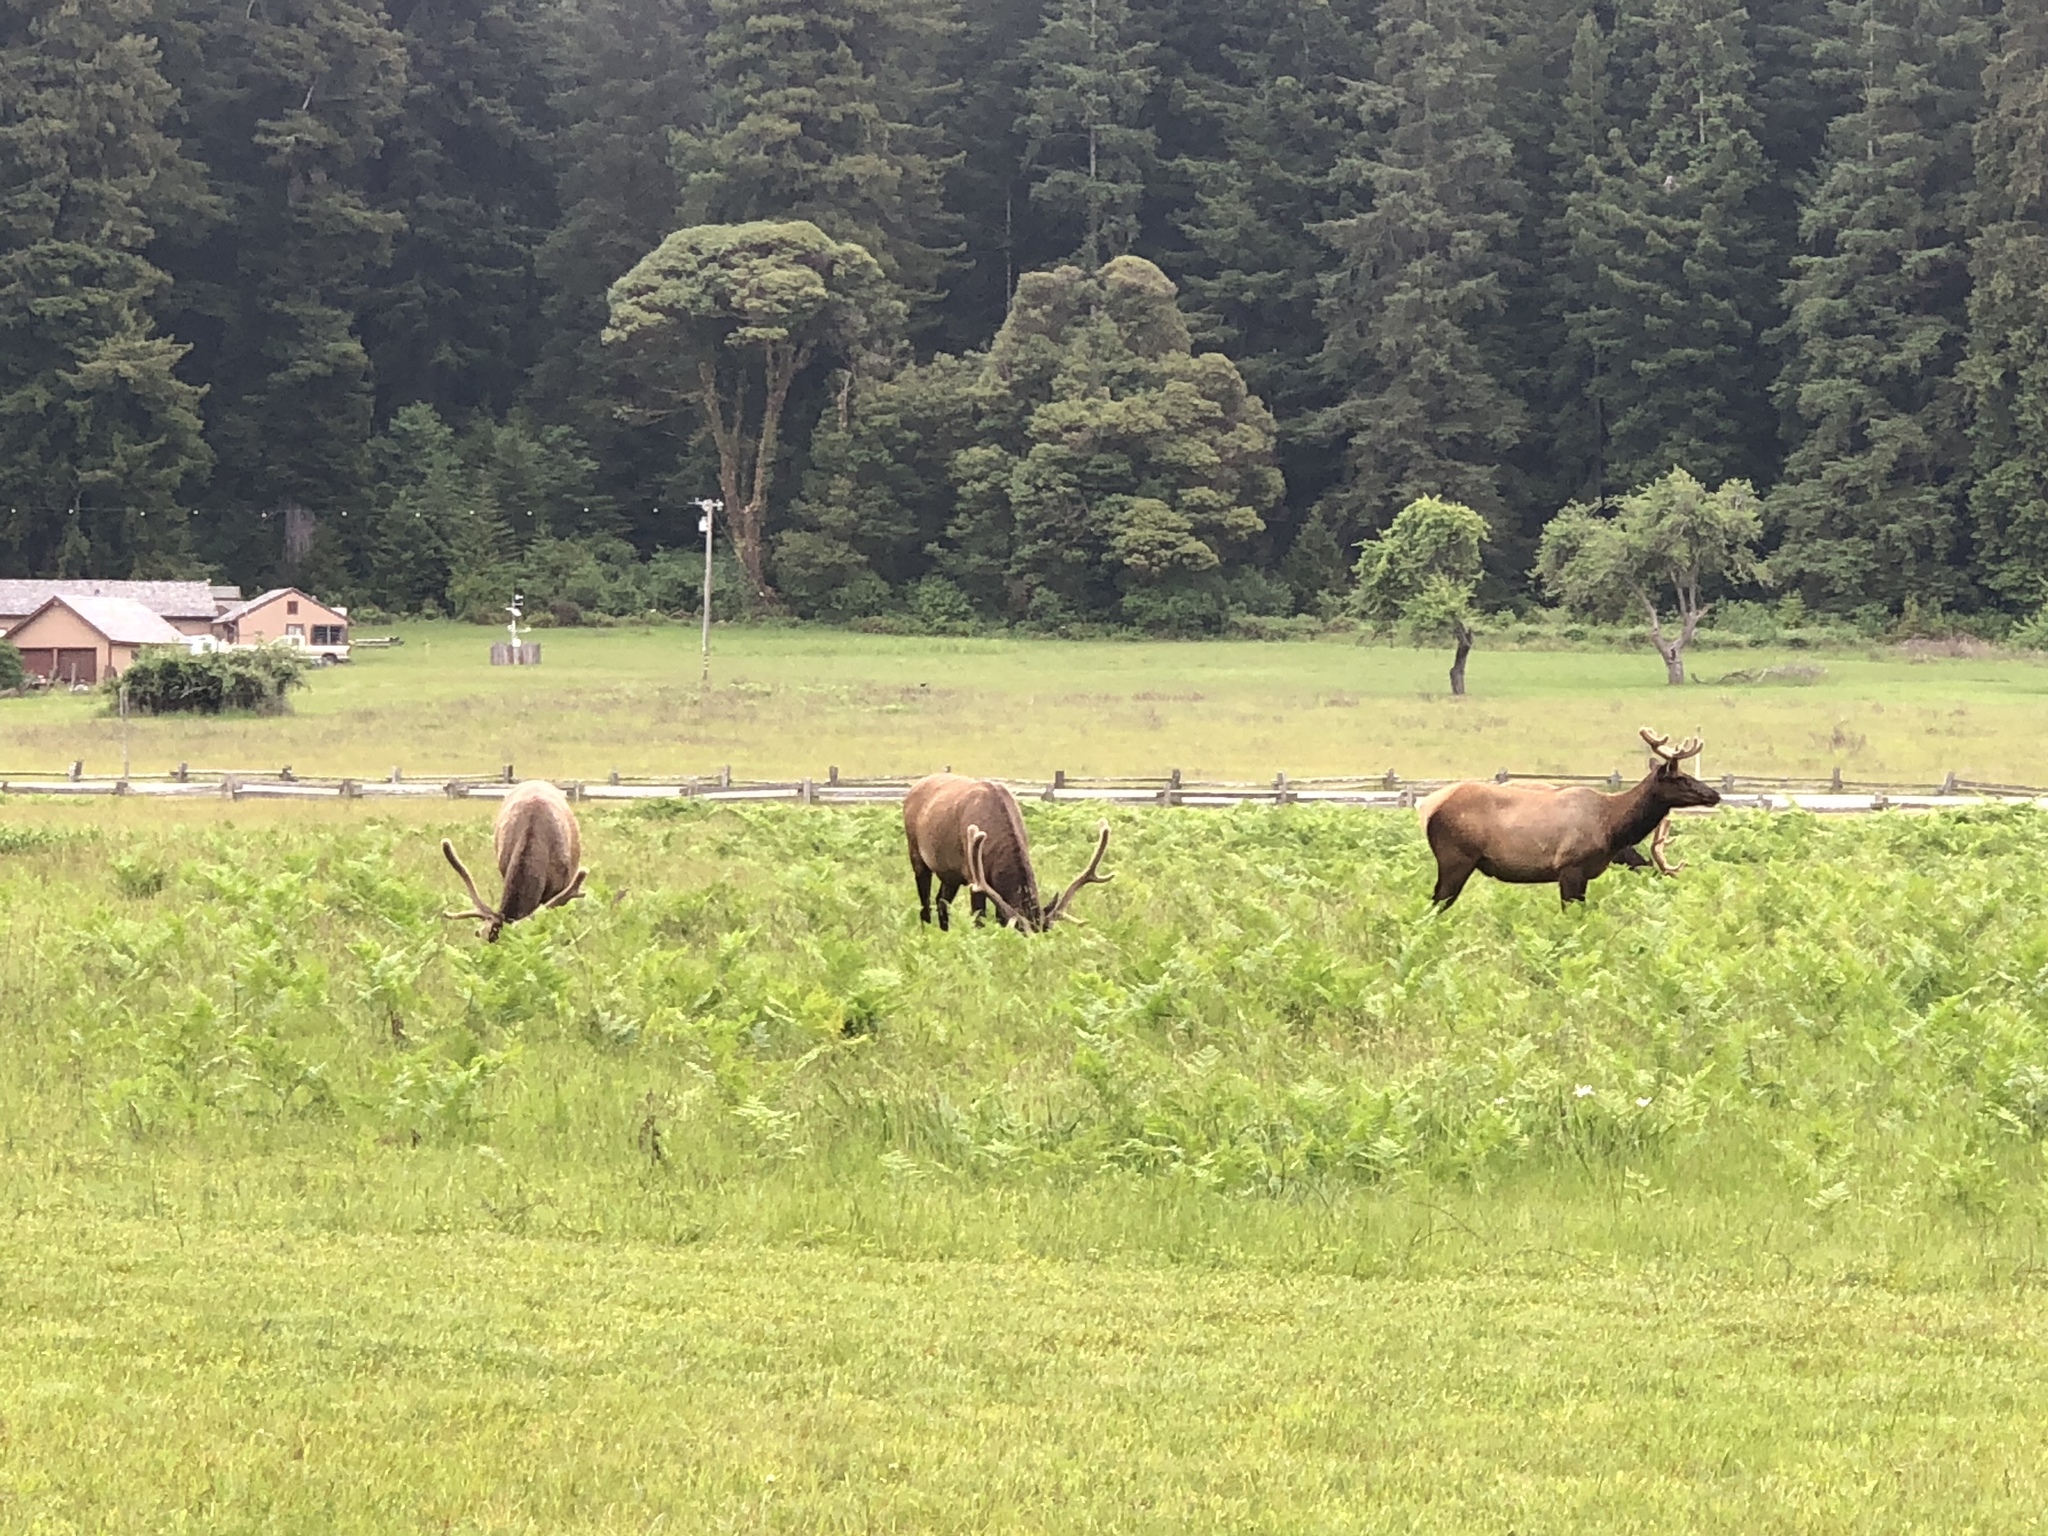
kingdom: Animalia
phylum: Chordata
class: Mammalia
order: Artiodactyla
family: Cervidae
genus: Cervus
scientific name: Cervus elaphus
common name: Red deer
